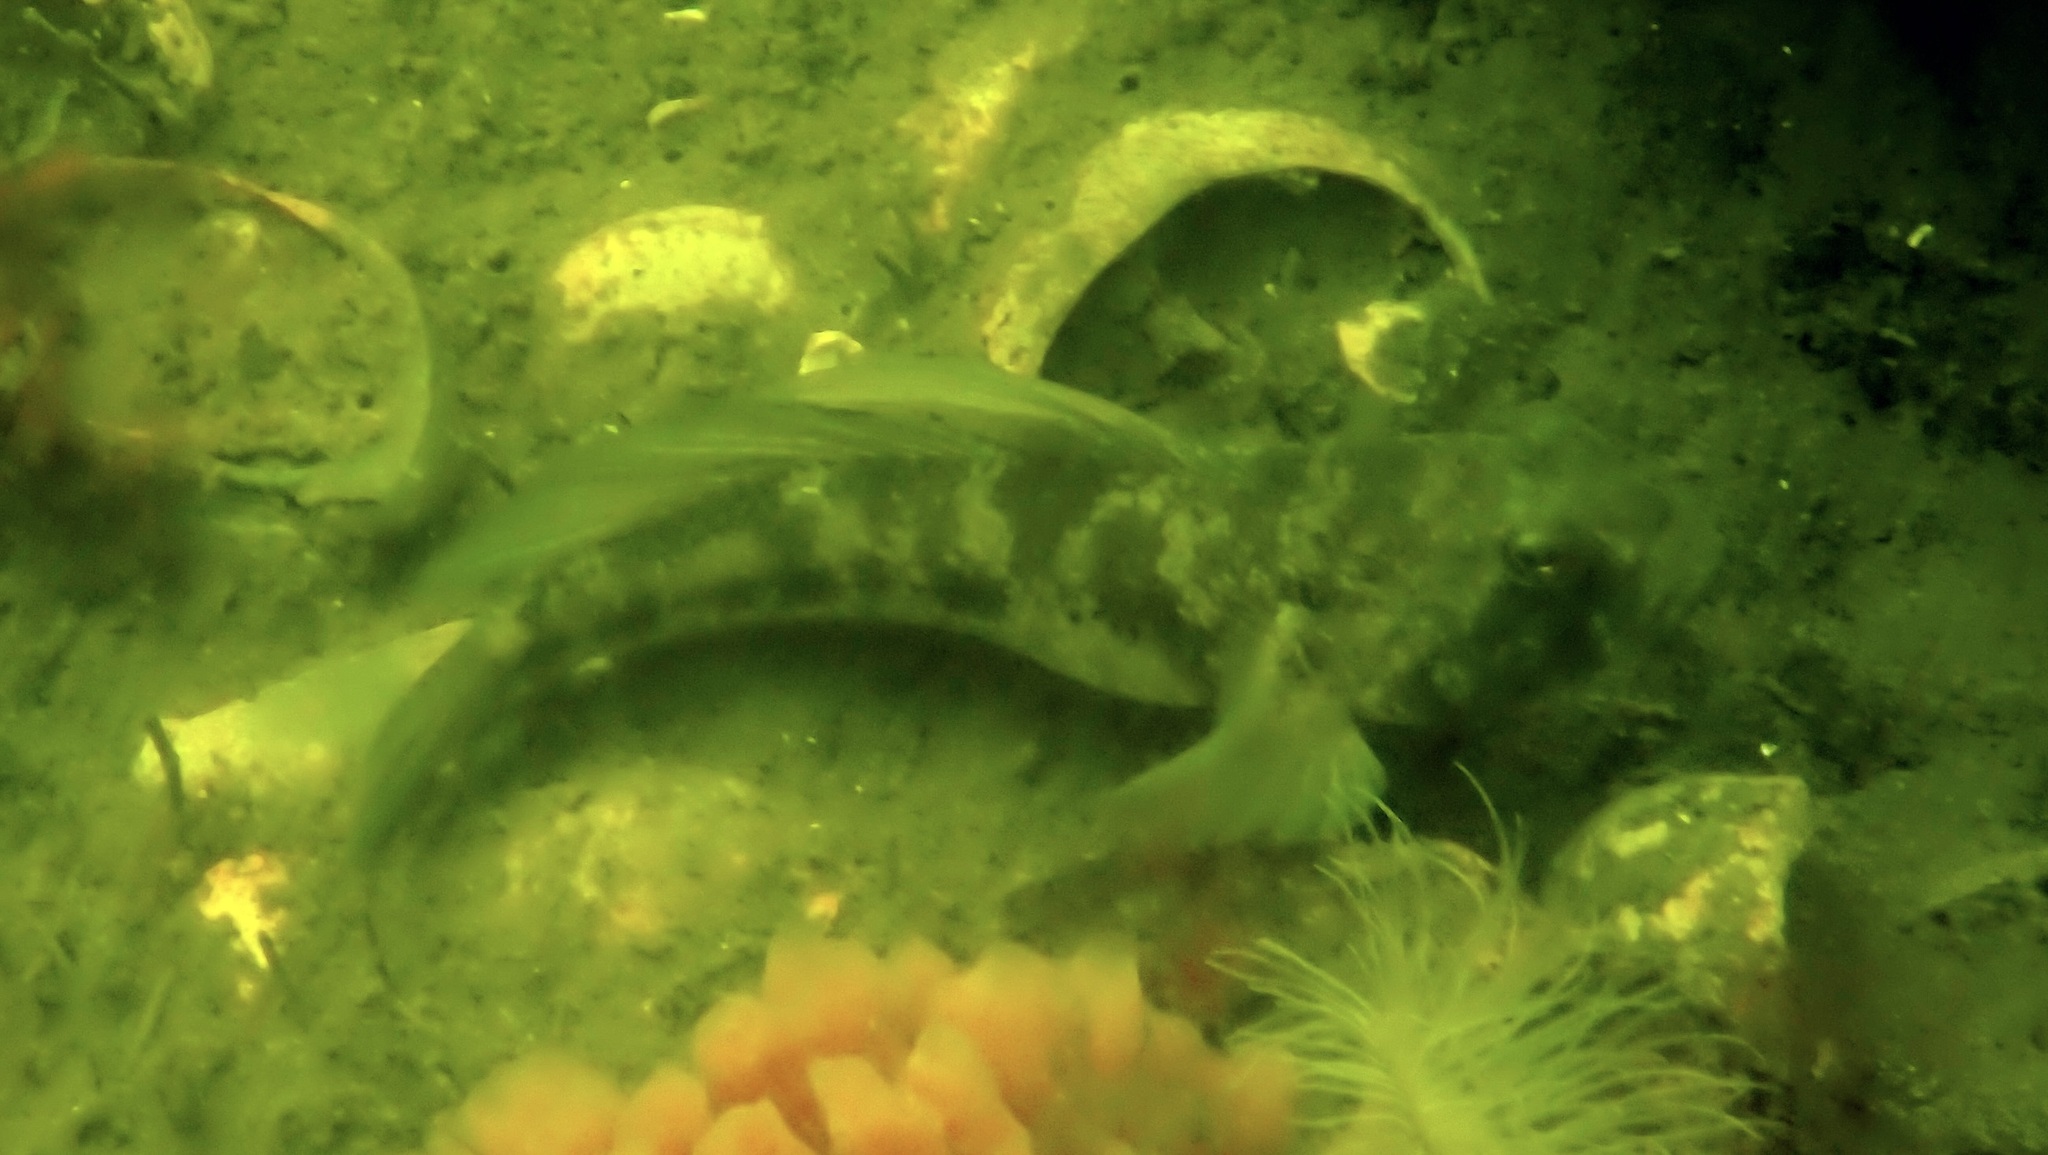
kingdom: Animalia
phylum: Chordata
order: Perciformes
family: Gobiidae
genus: Gobius
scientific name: Gobius niger
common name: Black goby
